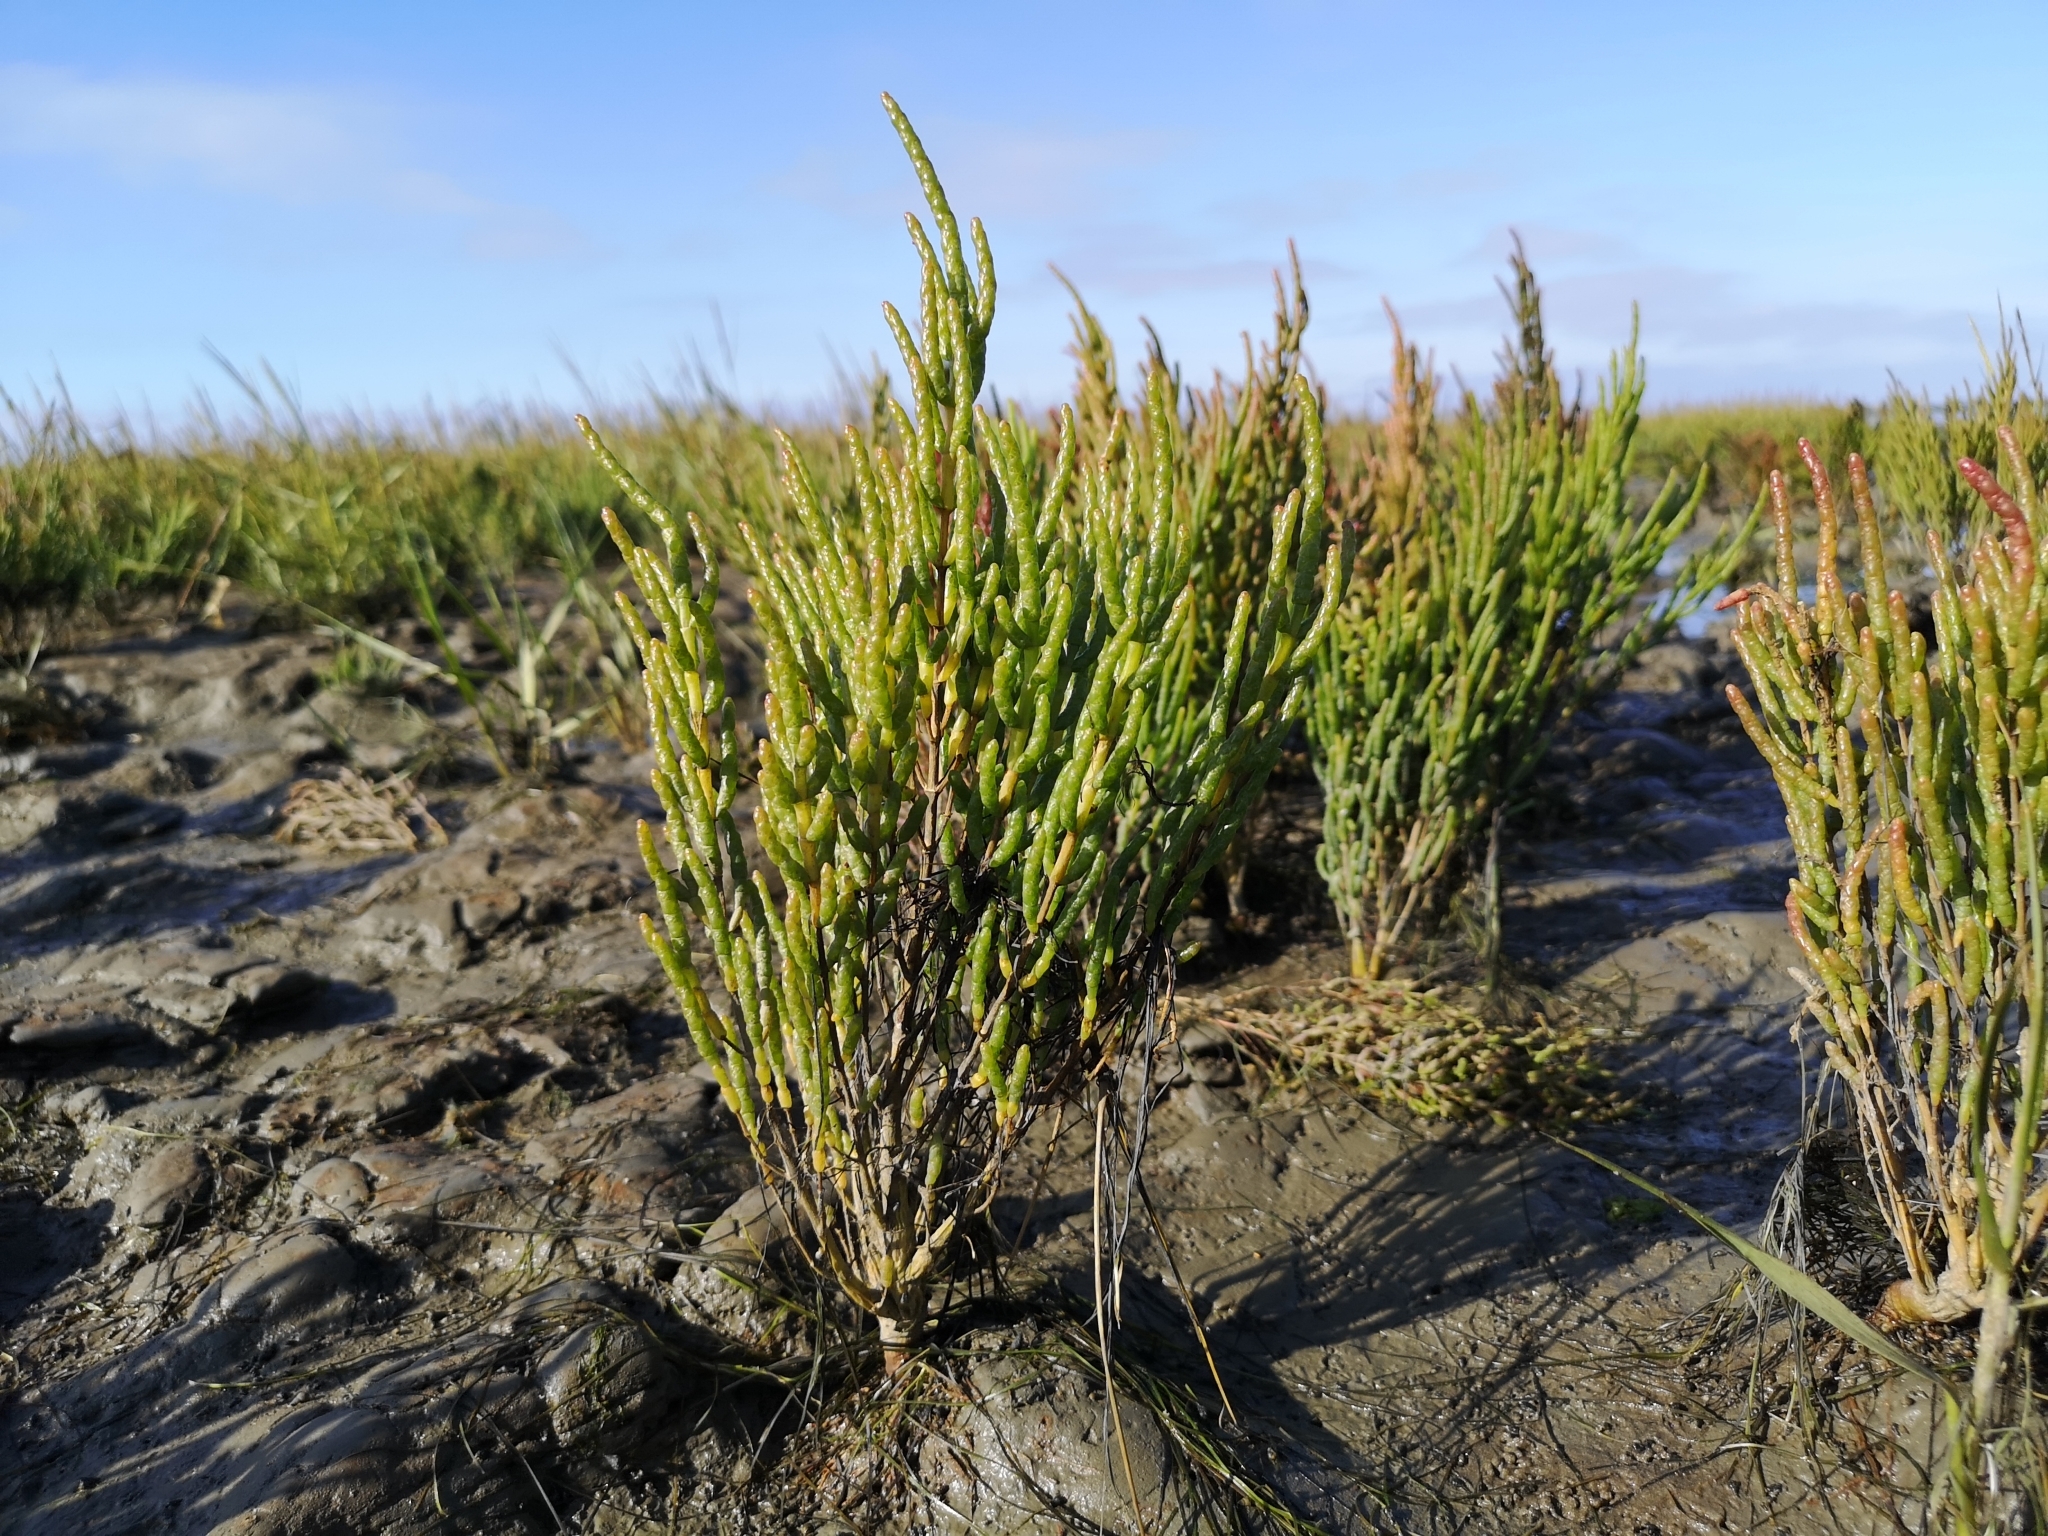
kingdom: Plantae
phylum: Tracheophyta
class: Magnoliopsida
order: Caryophyllales
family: Amaranthaceae
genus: Salicornia
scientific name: Salicornia europaea
